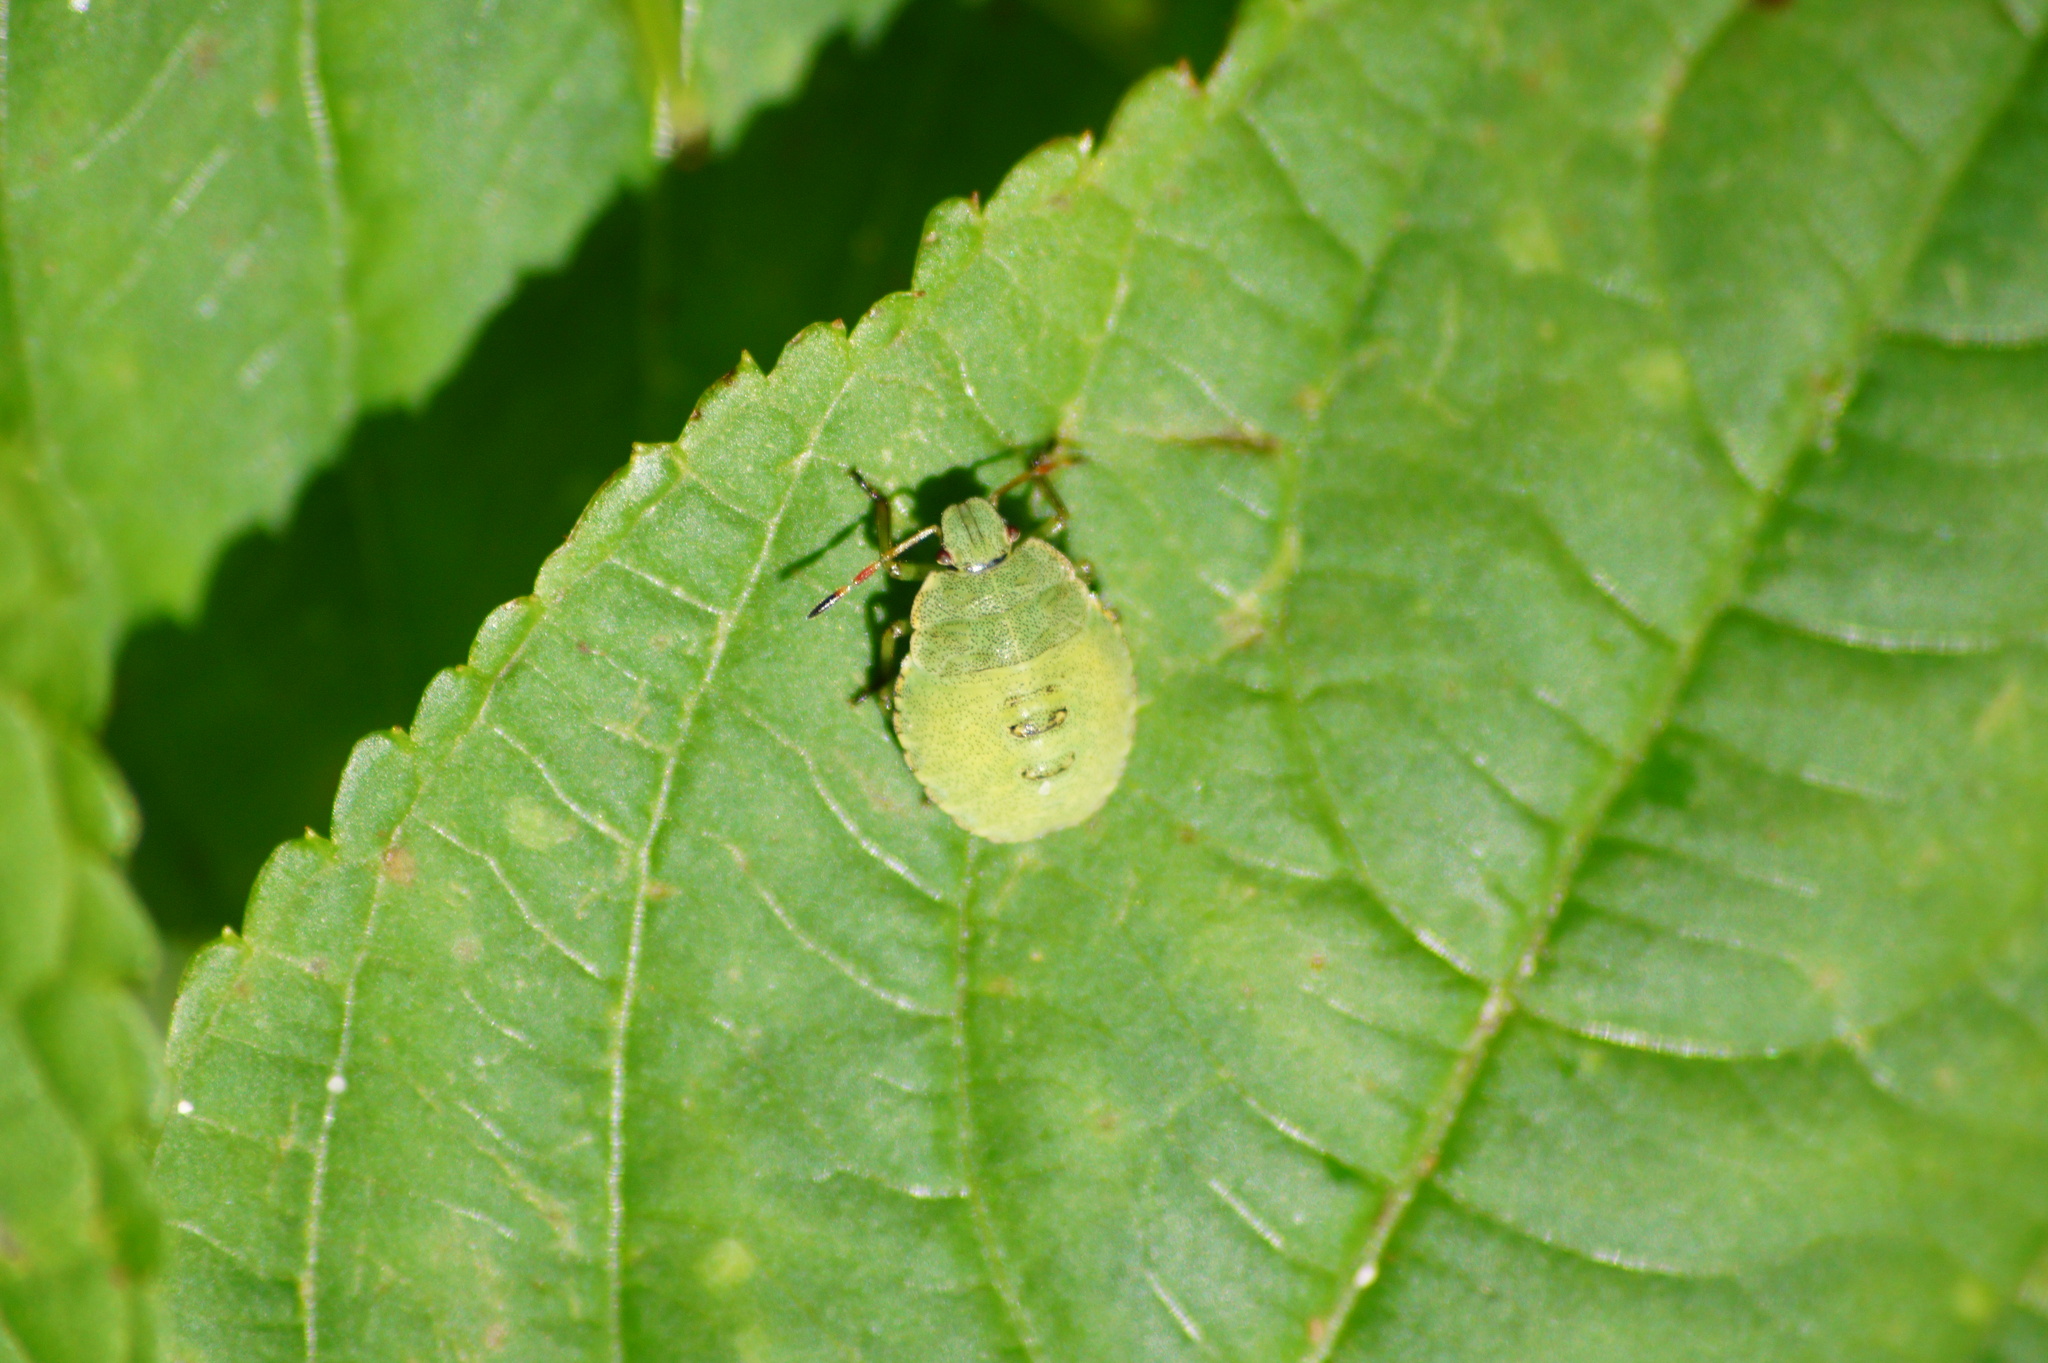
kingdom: Animalia
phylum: Arthropoda
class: Insecta
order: Hemiptera
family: Pentatomidae
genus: Palomena
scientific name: Palomena prasina
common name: Green shieldbug
